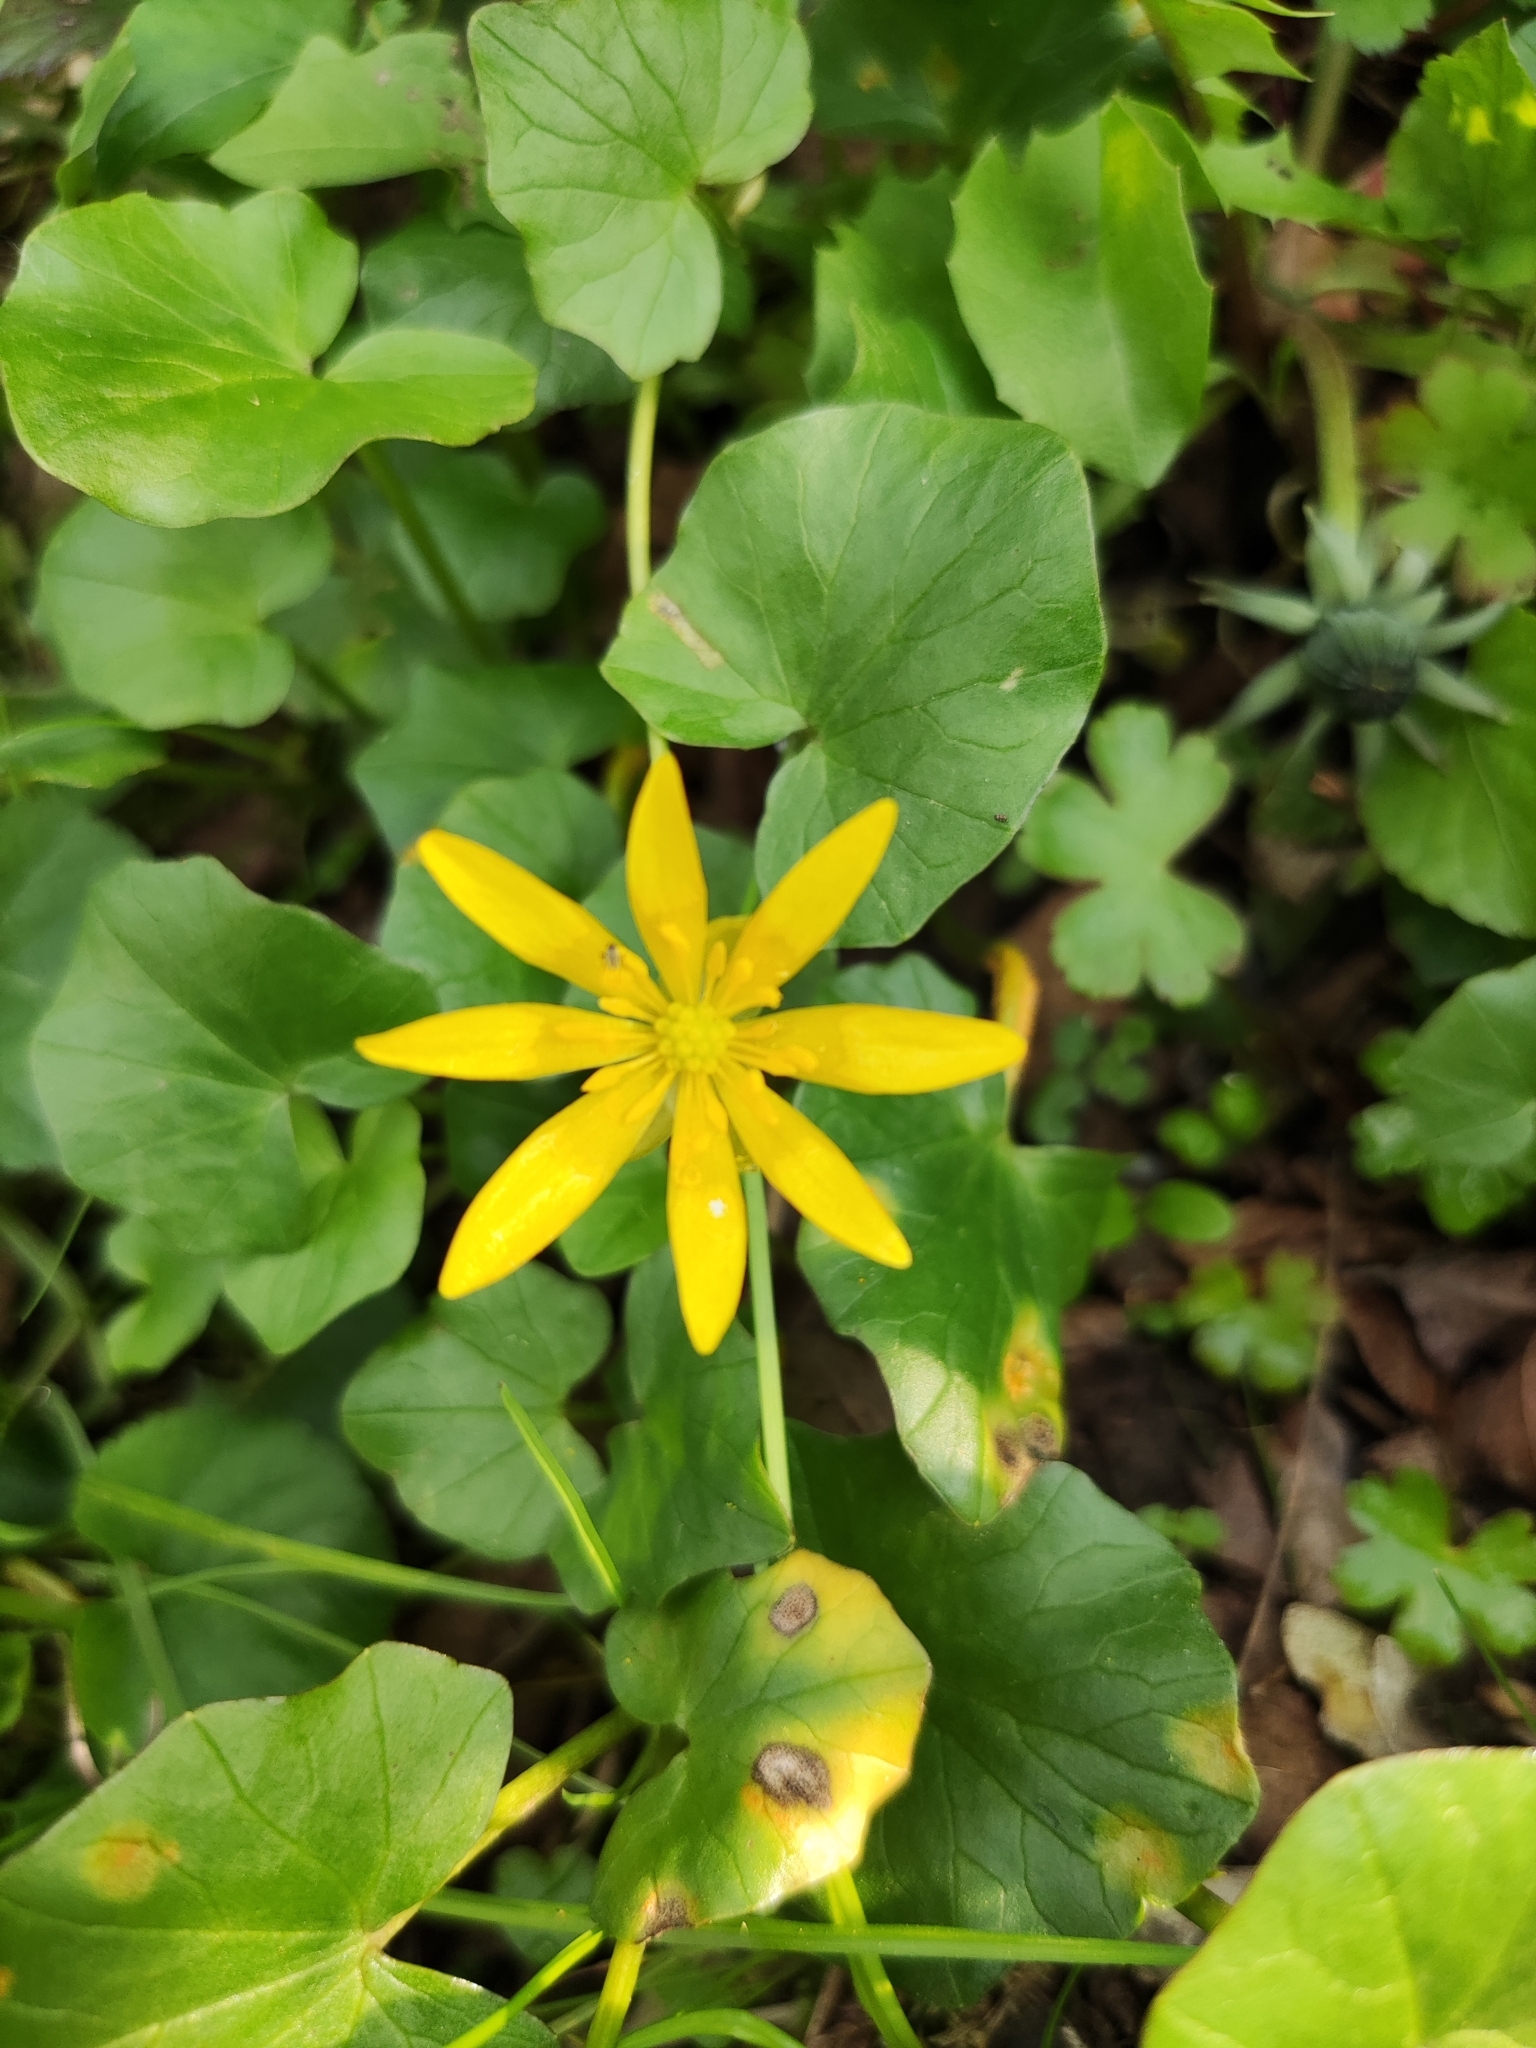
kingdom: Plantae
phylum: Tracheophyta
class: Magnoliopsida
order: Ranunculales
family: Ranunculaceae
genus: Ficaria
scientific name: Ficaria verna
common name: Lesser celandine
